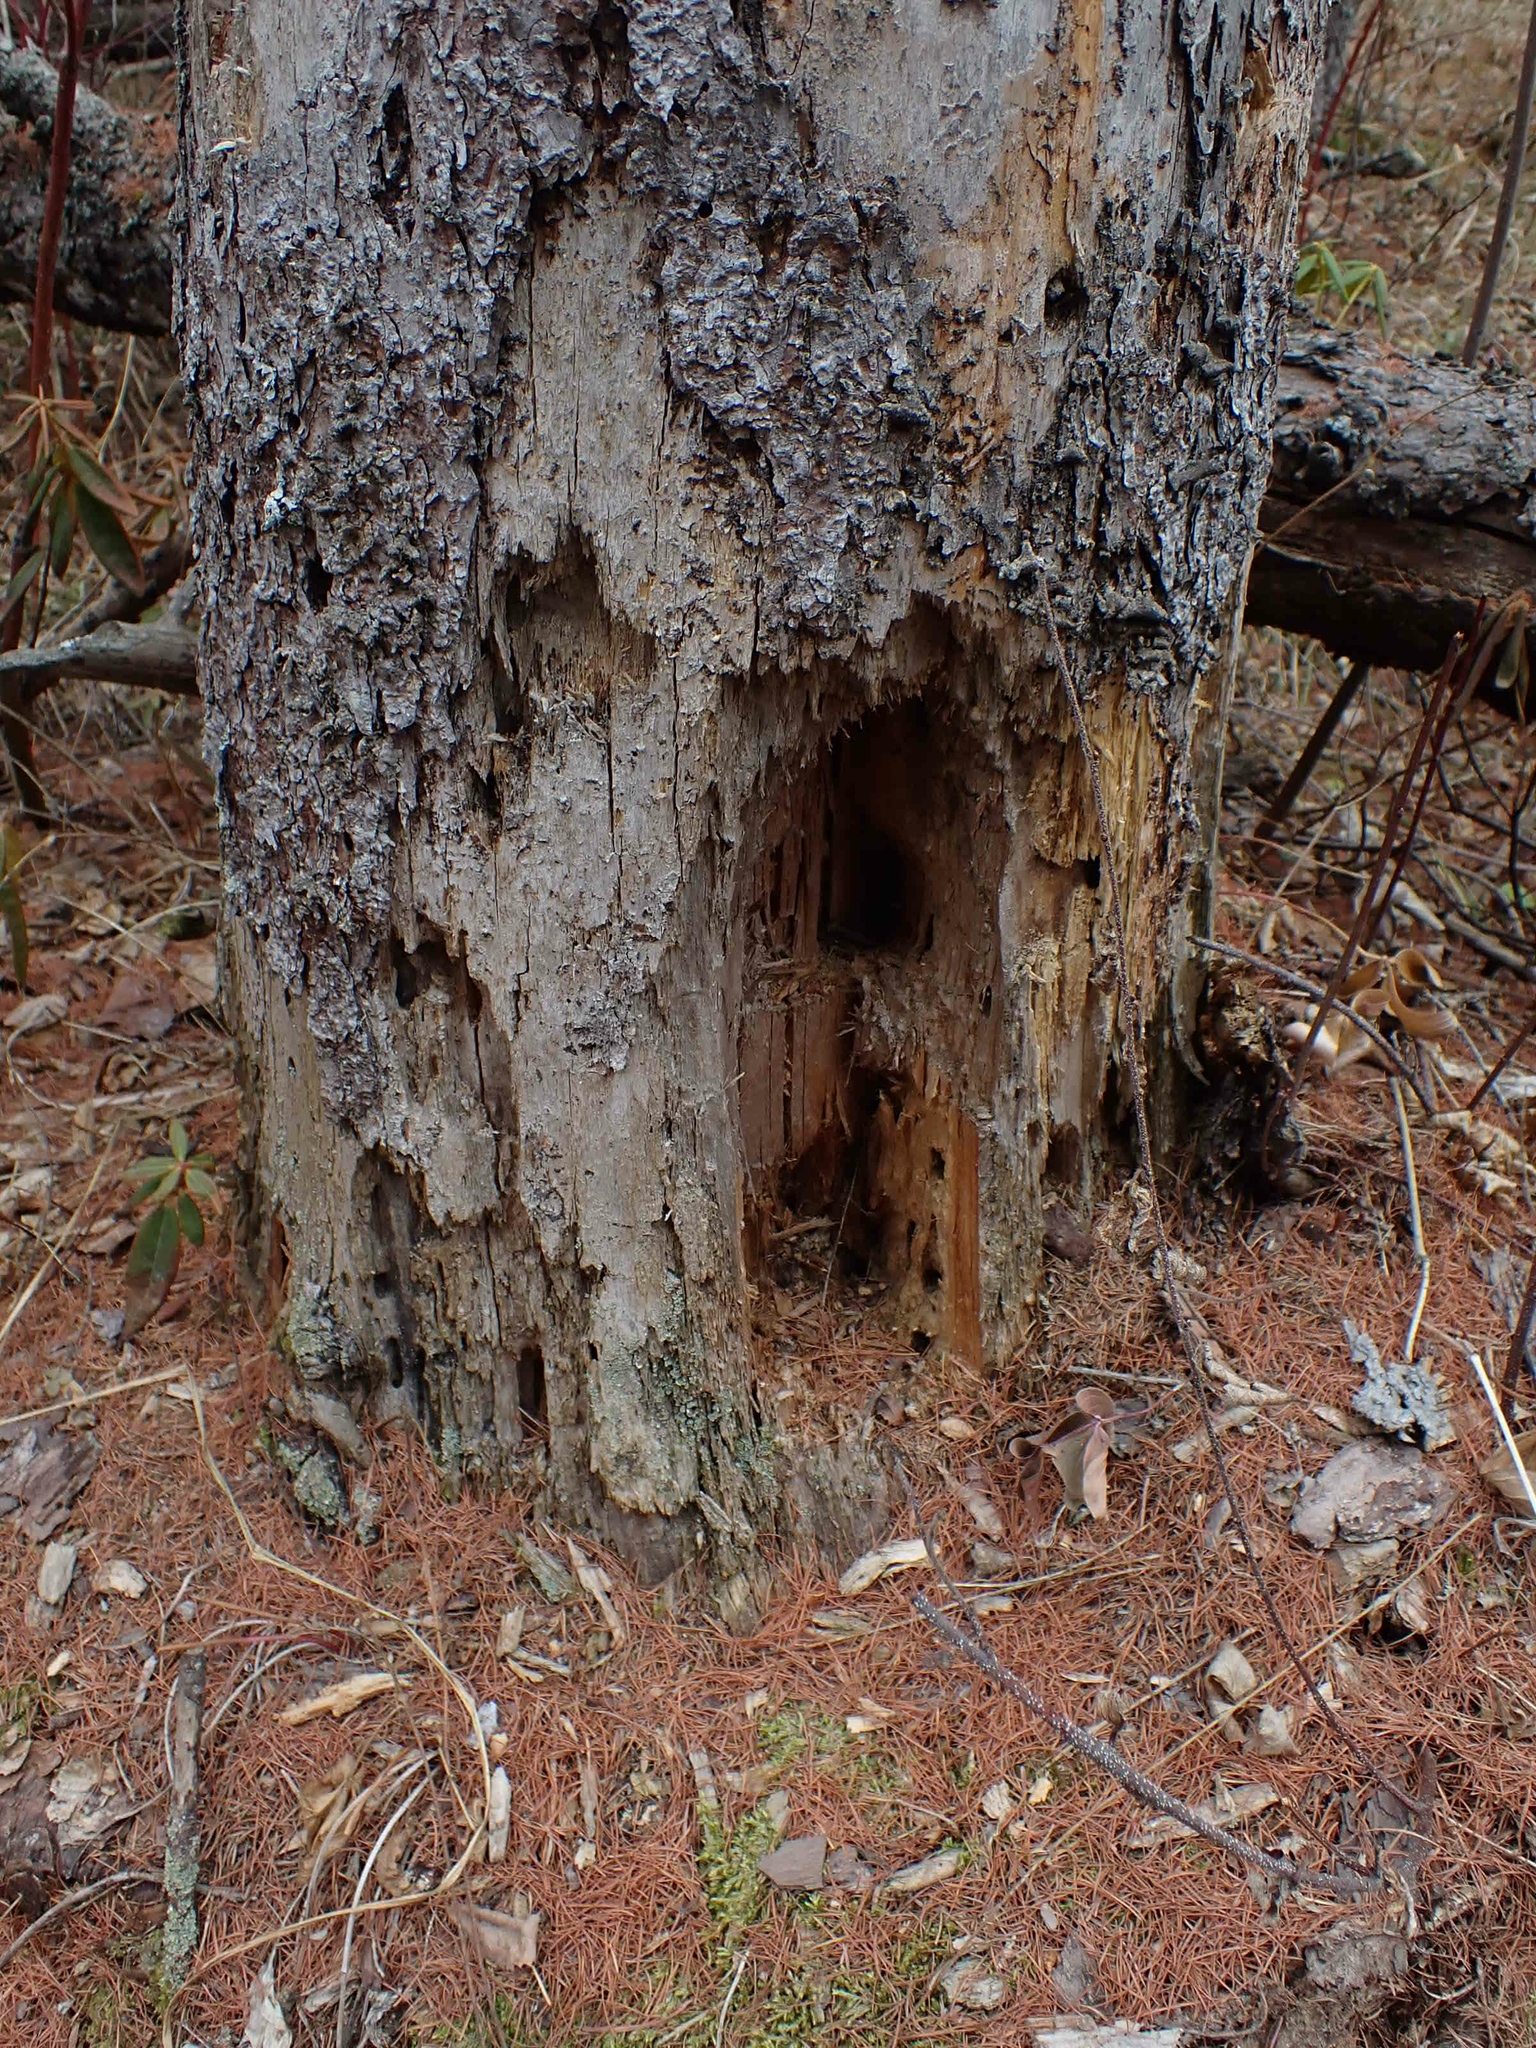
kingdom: Animalia
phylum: Chordata
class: Aves
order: Piciformes
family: Picidae
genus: Dryocopus
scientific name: Dryocopus pileatus
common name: Pileated woodpecker
